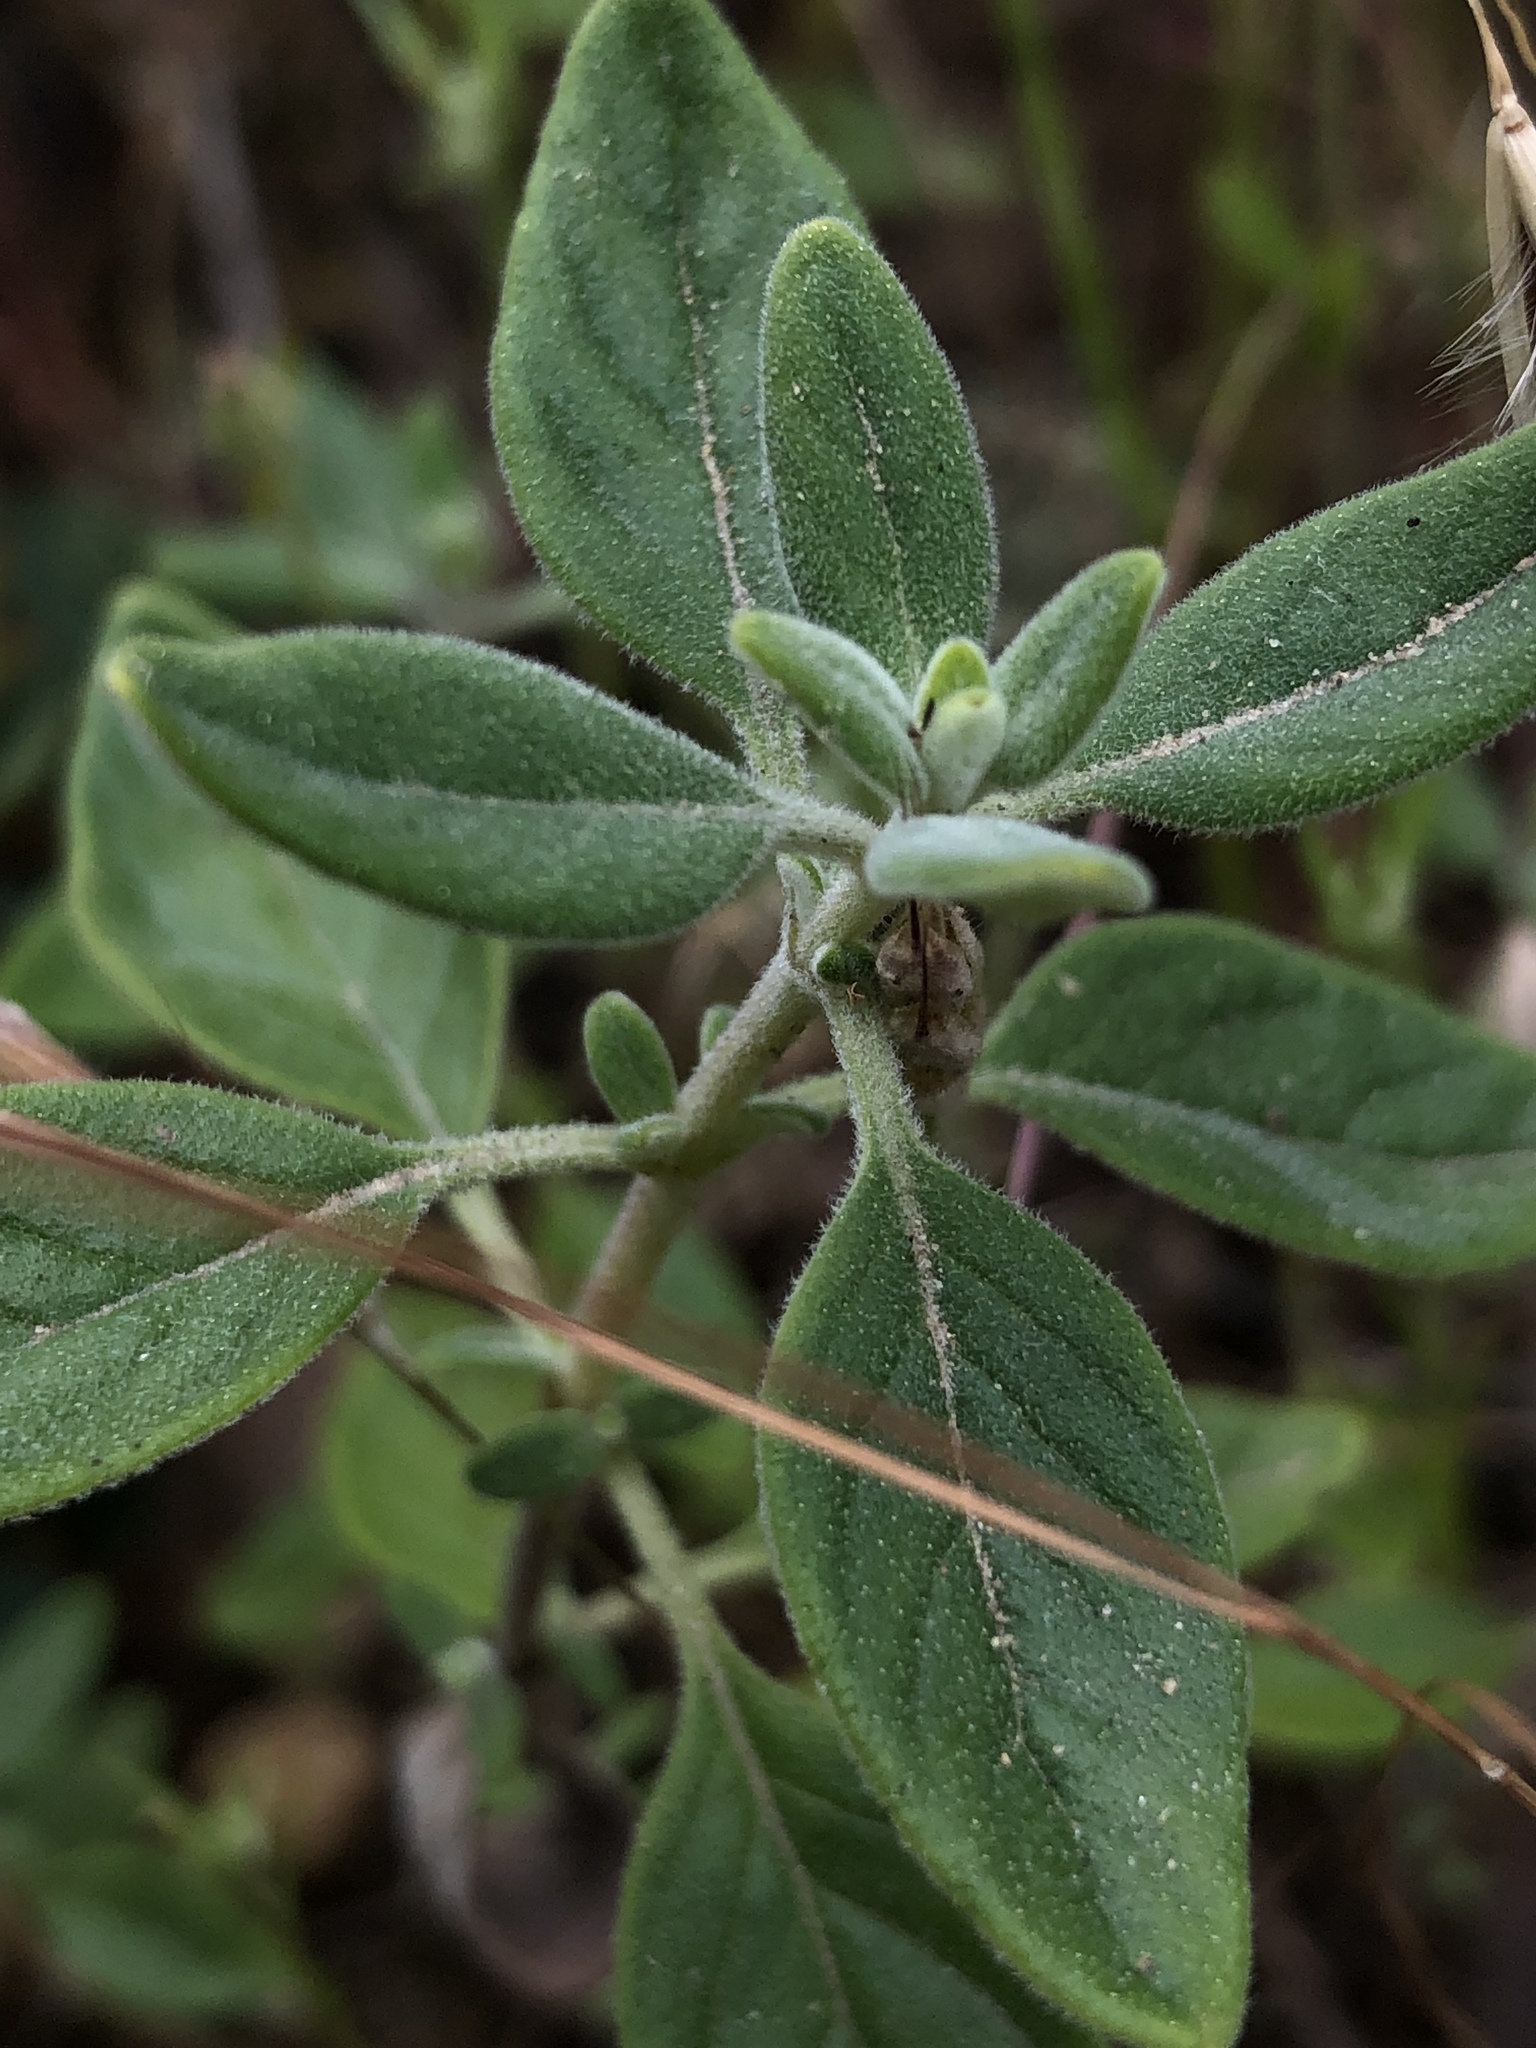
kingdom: Plantae
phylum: Tracheophyta
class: Magnoliopsida
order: Lamiales
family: Lamiaceae
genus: Monardella
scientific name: Monardella odoratissima
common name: Pacific monardella
